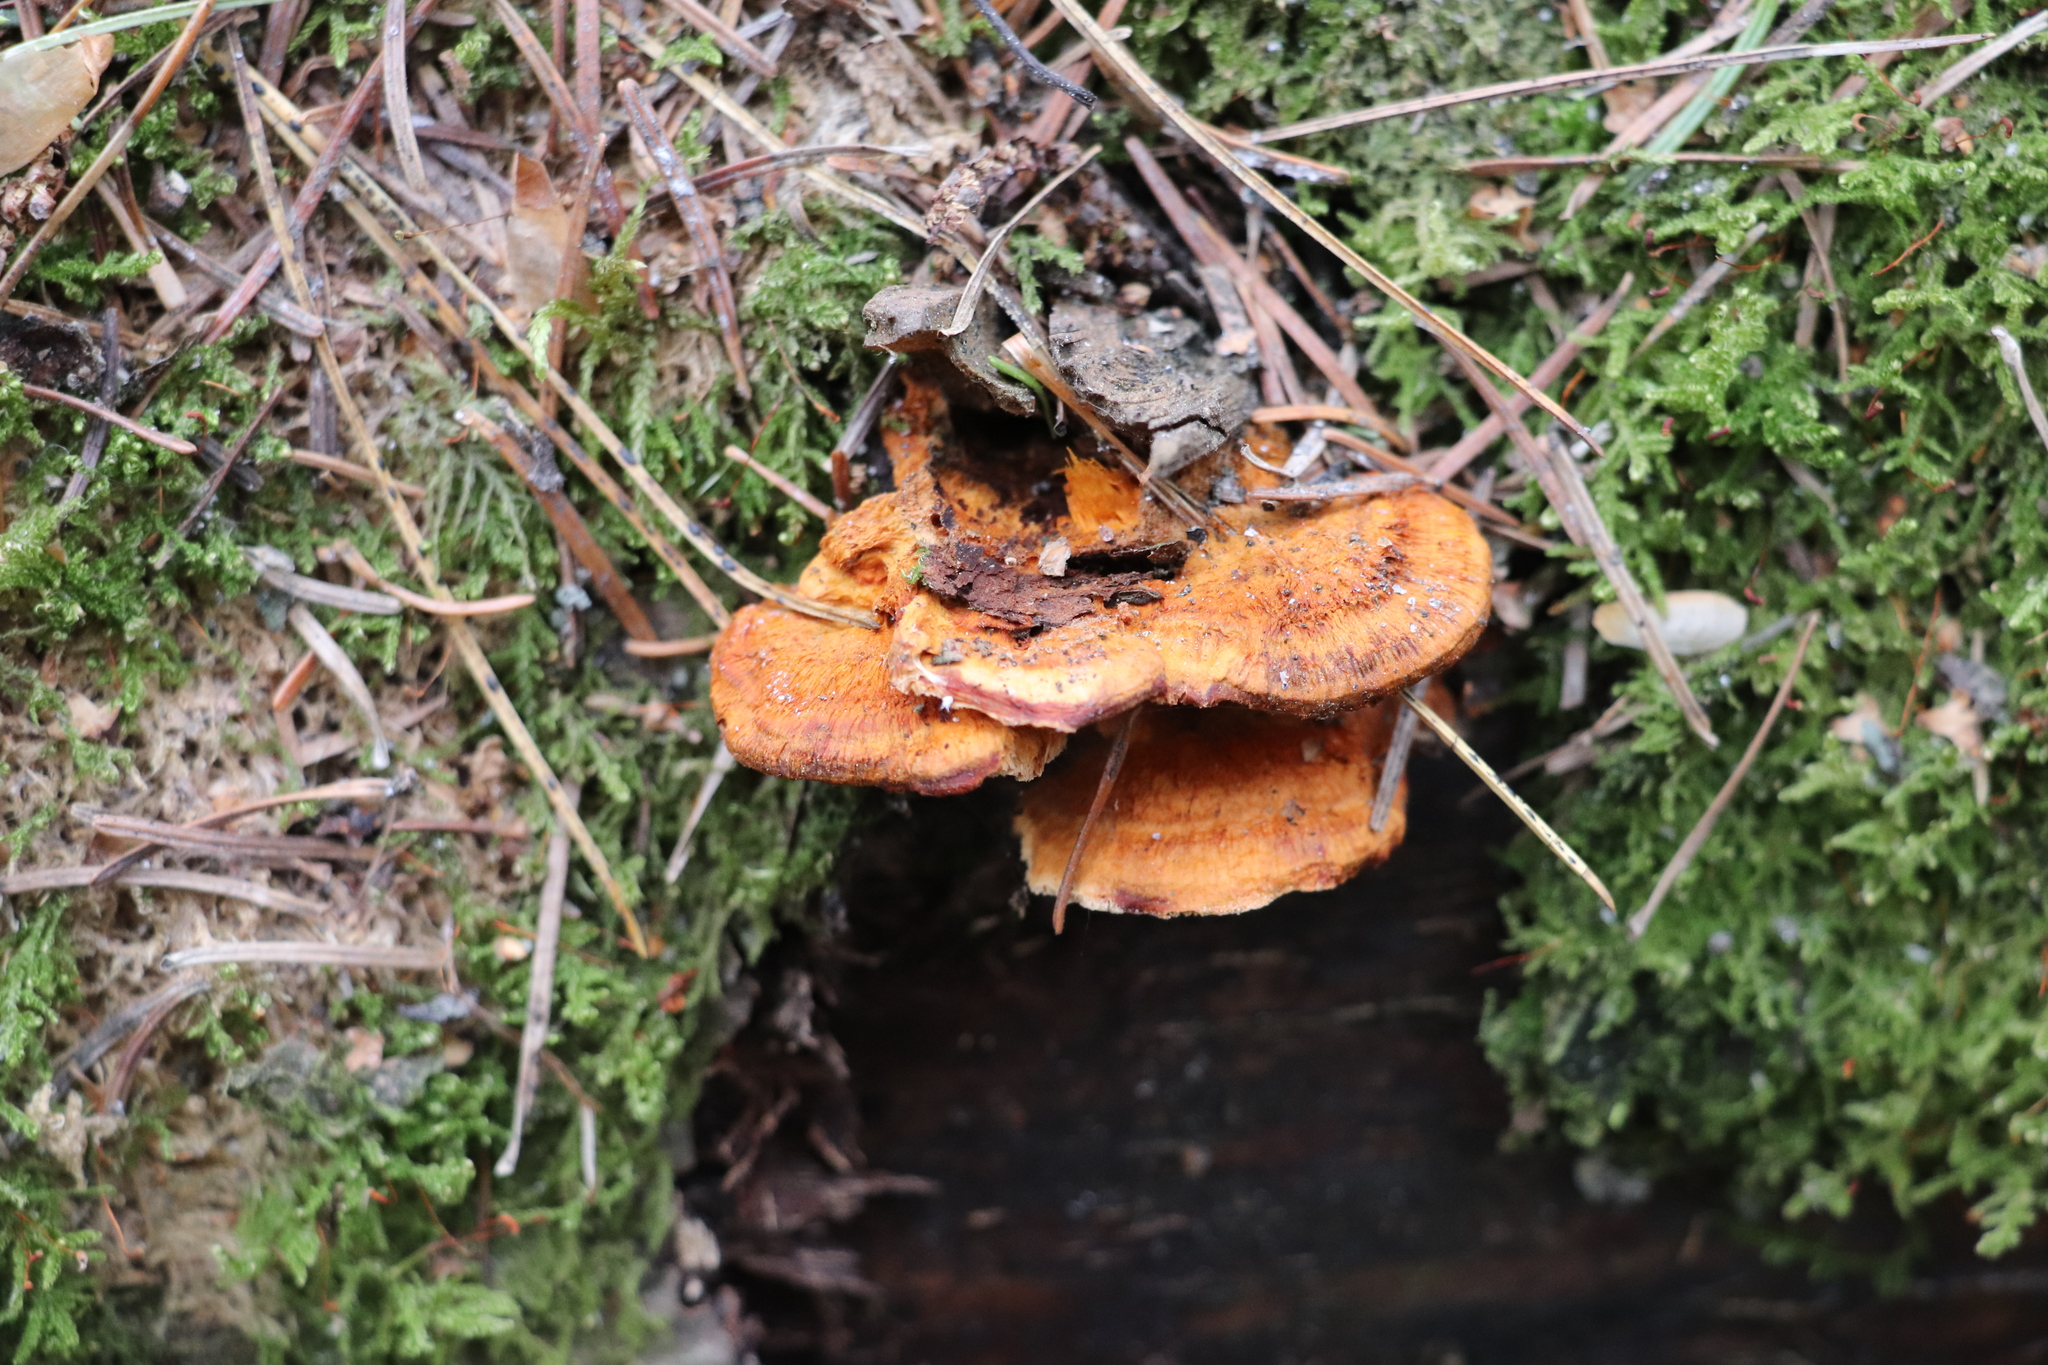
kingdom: Fungi
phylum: Basidiomycota
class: Agaricomycetes
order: Polyporales
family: Pycnoporellaceae
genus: Pycnoporellus
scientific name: Pycnoporellus fulgens
